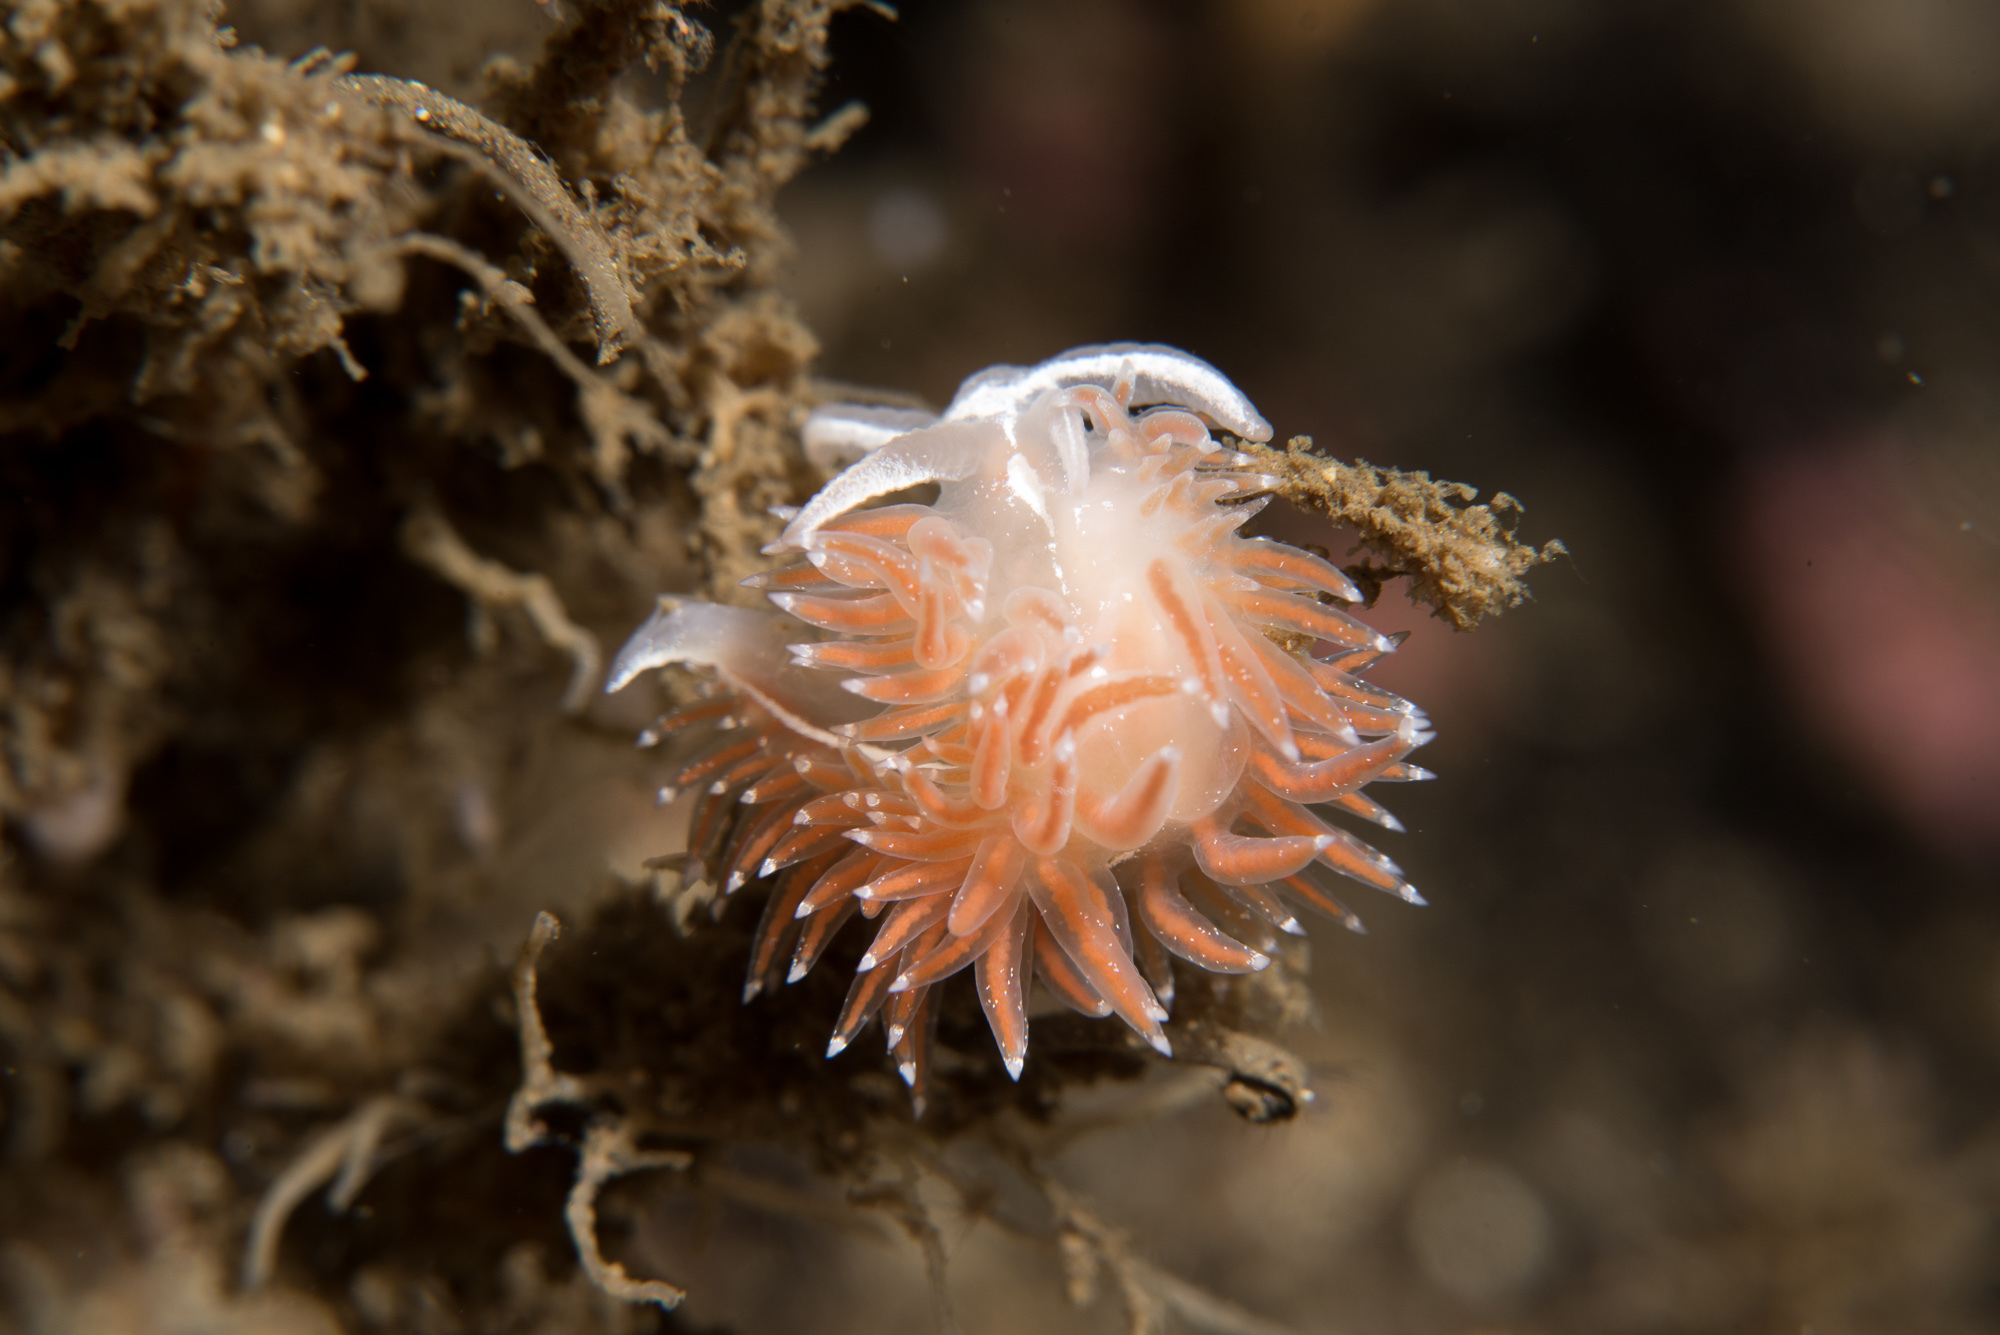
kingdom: Animalia
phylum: Mollusca
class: Gastropoda
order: Nudibranchia
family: Coryphellidae
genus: Coryphella
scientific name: Coryphella monicae
